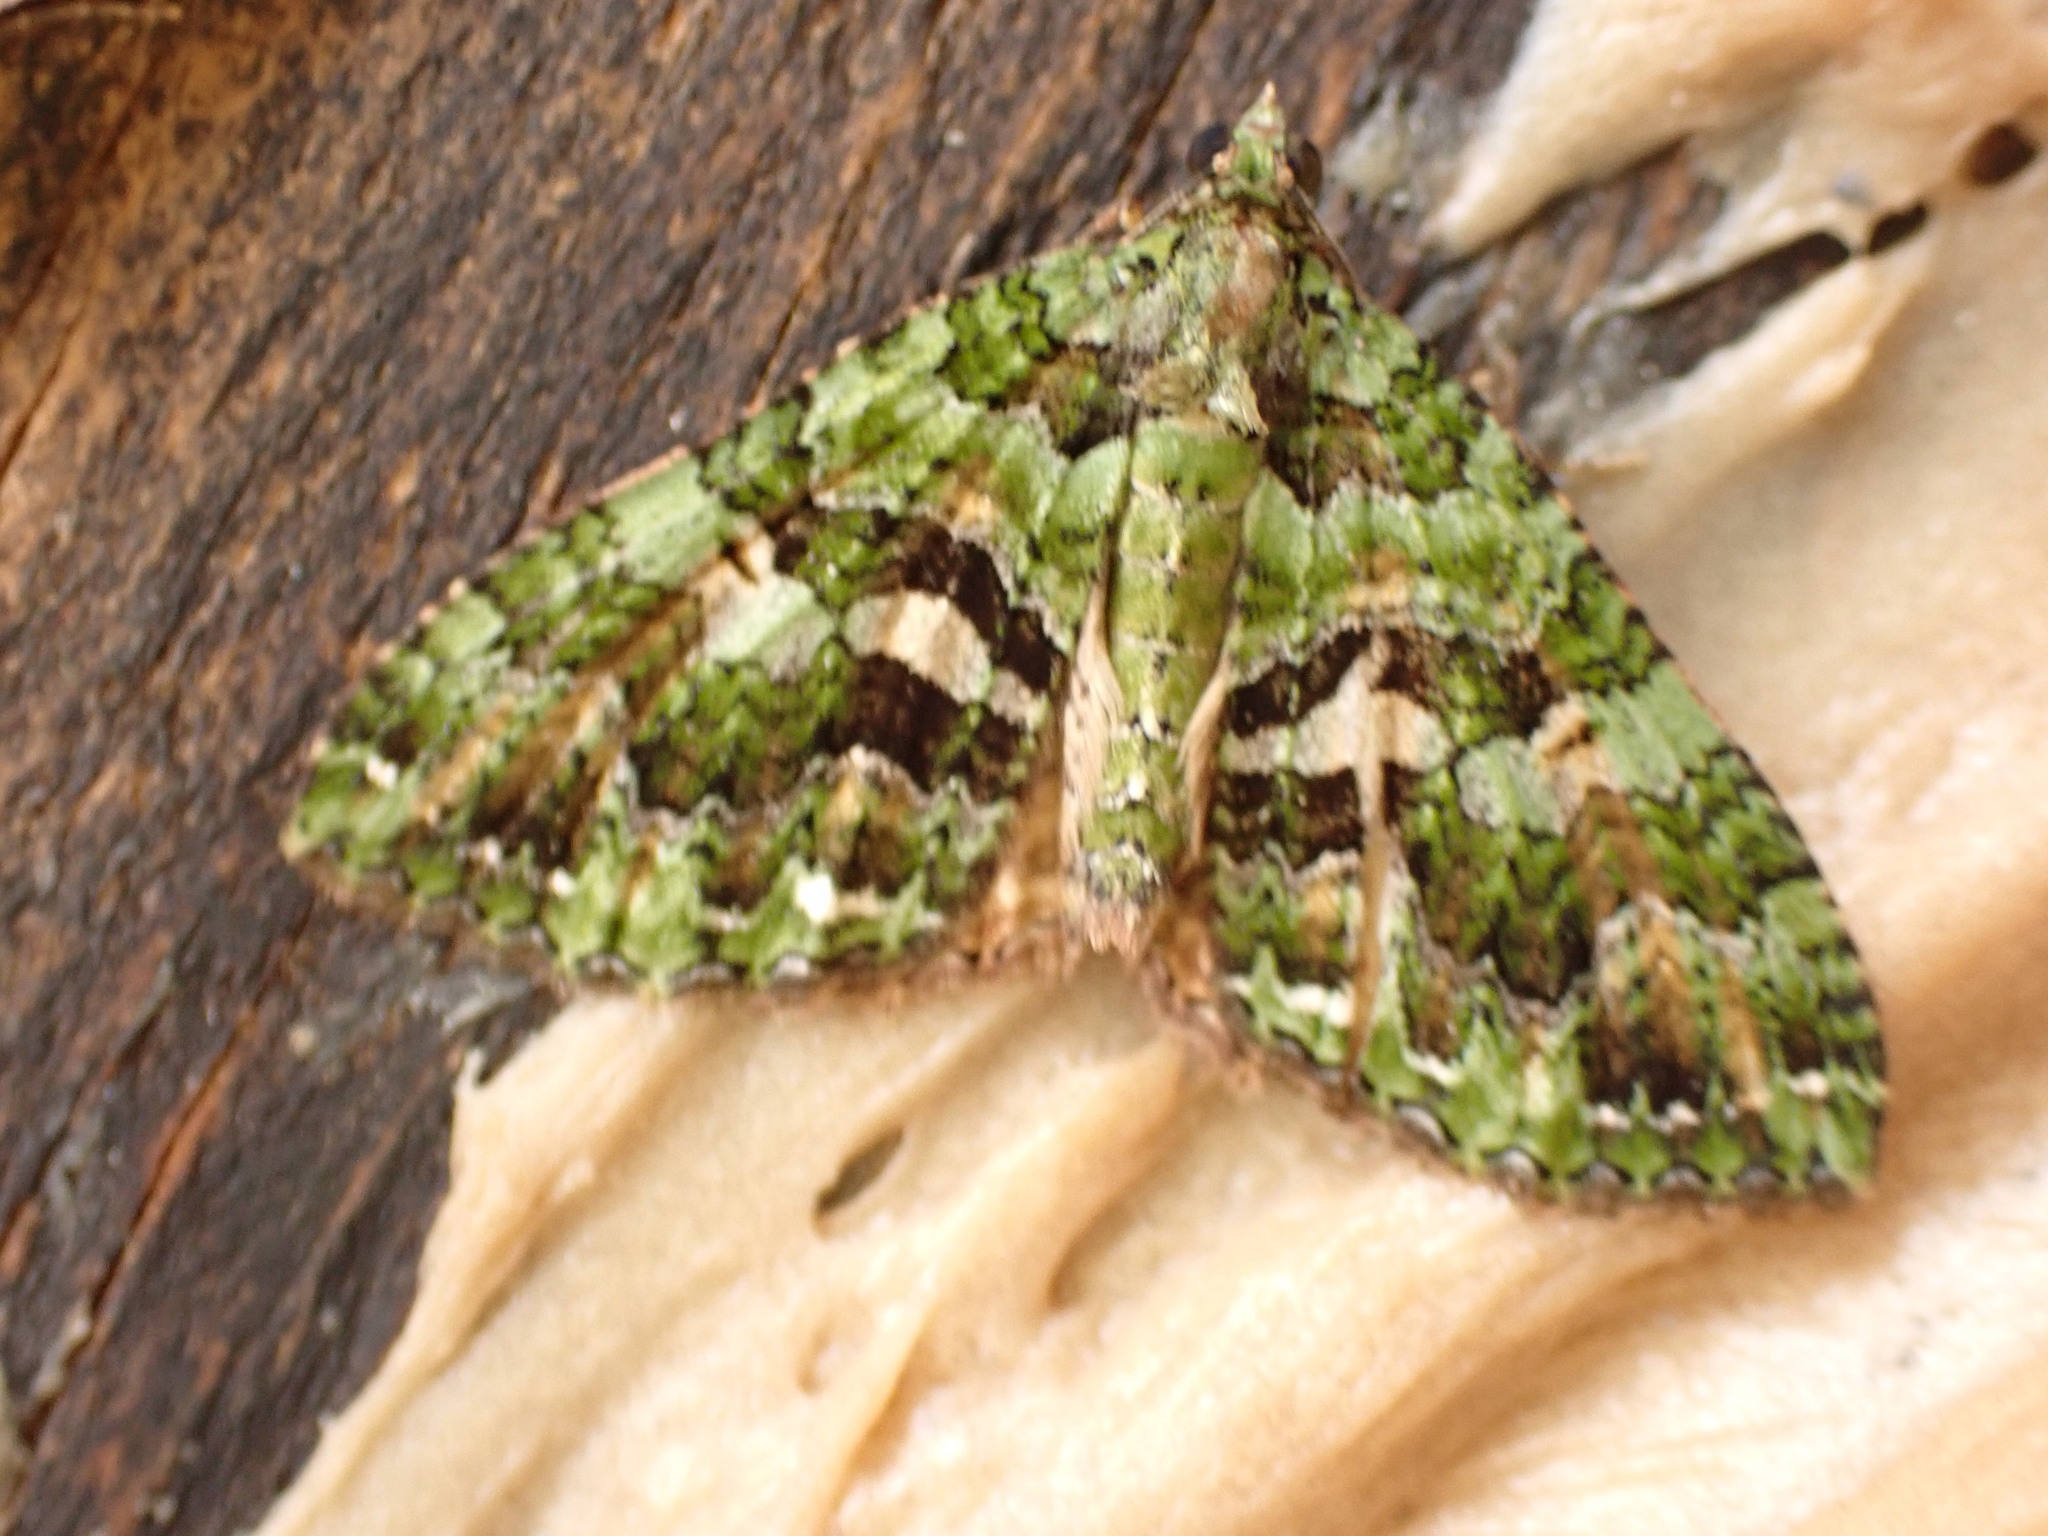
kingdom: Animalia
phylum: Arthropoda
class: Insecta
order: Lepidoptera
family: Geometridae
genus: Austrocidaria
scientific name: Austrocidaria similata
